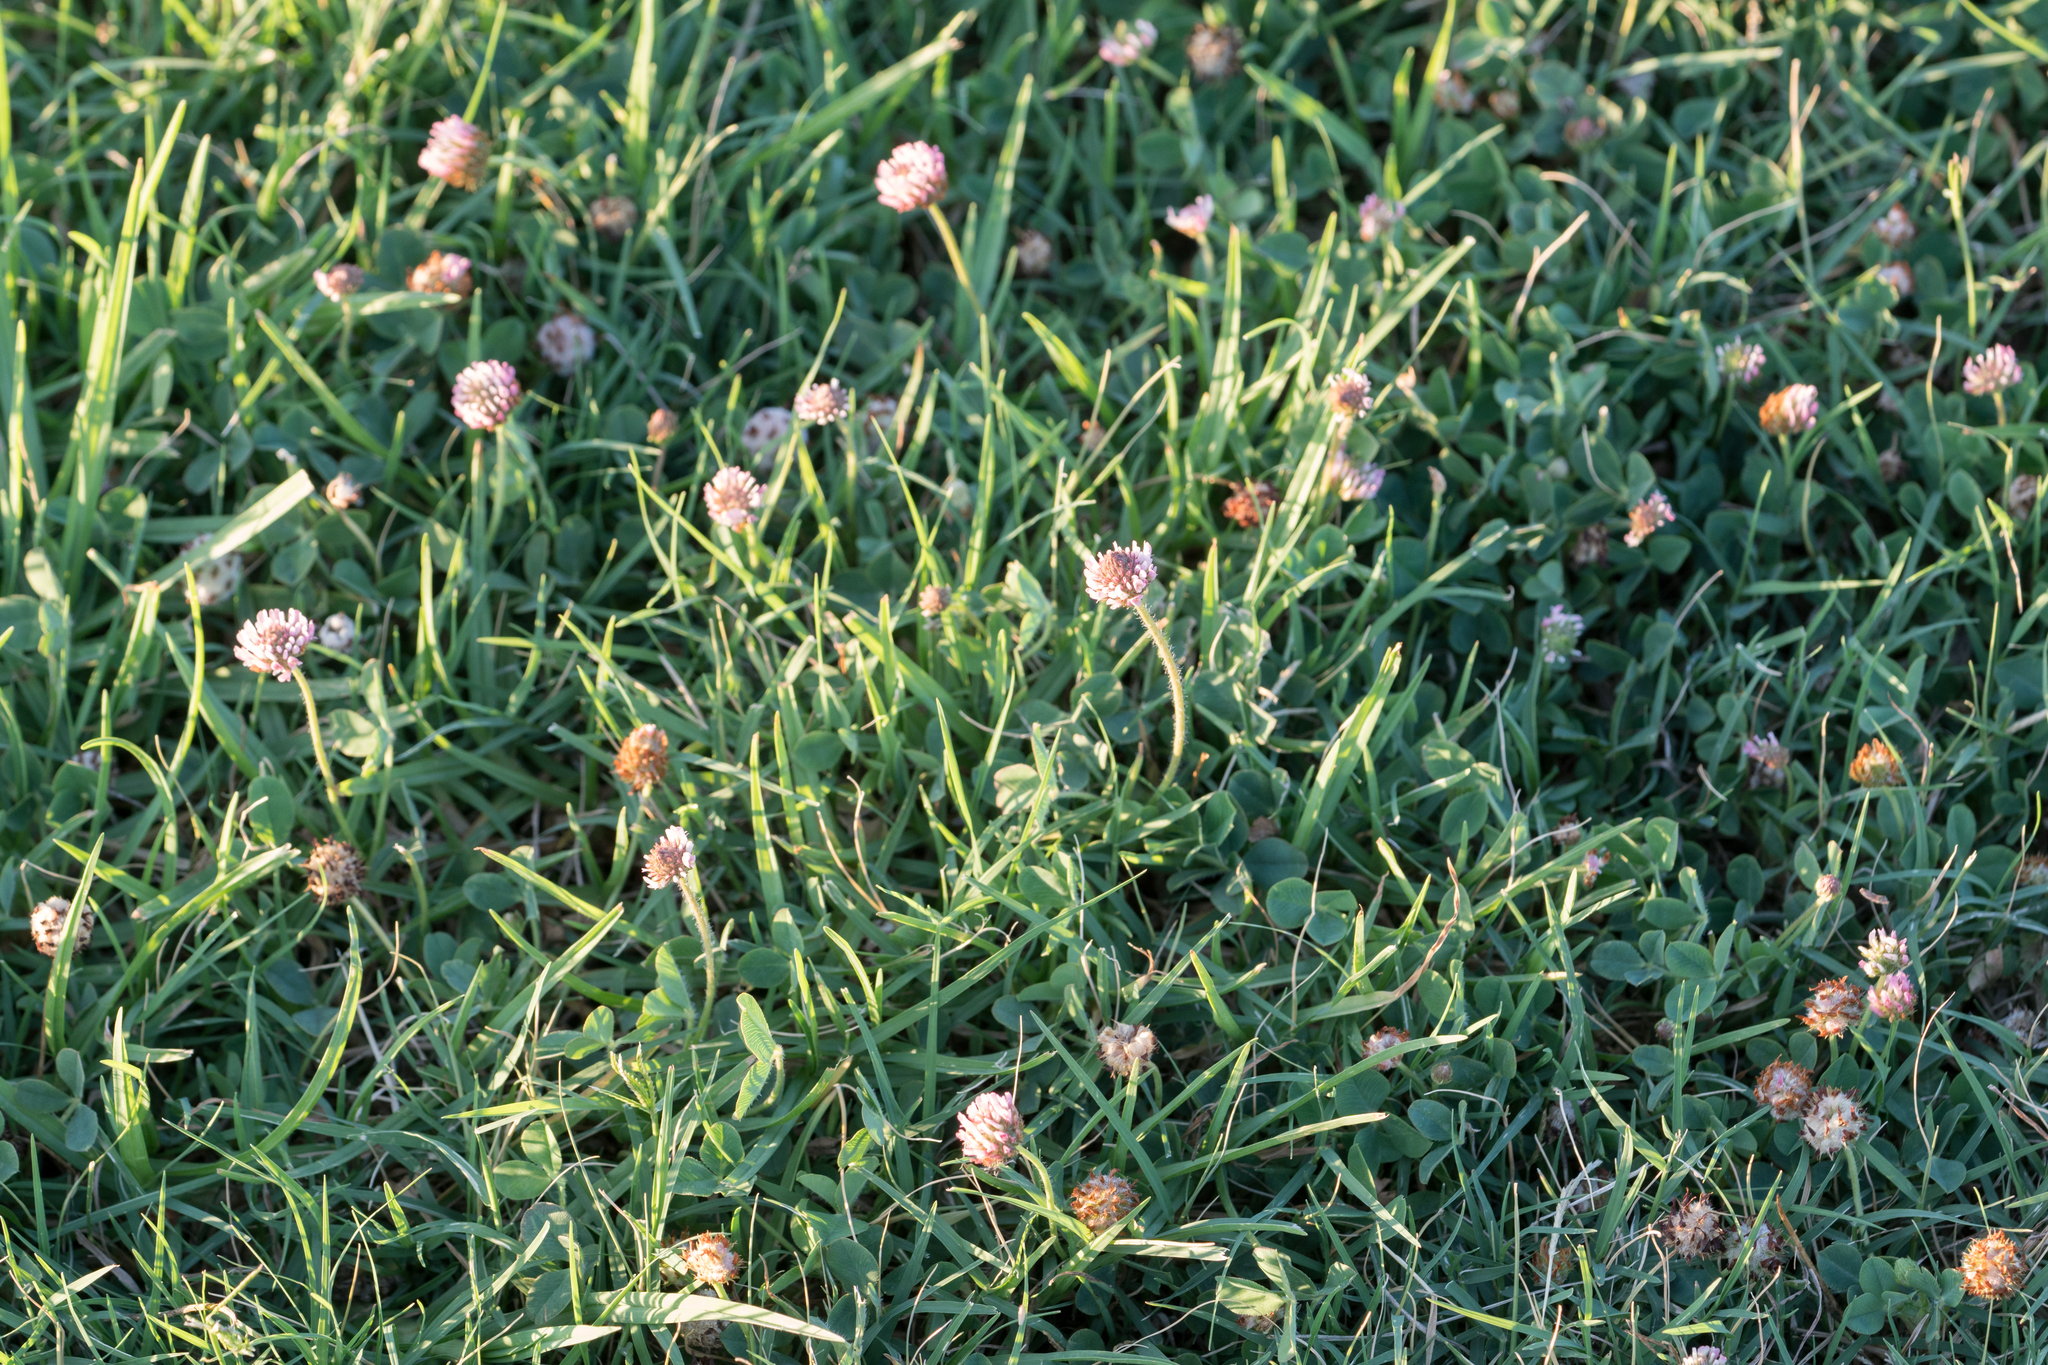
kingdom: Plantae
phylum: Tracheophyta
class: Magnoliopsida
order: Fabales
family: Fabaceae
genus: Trifolium
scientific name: Trifolium fragiferum
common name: Strawberry clover
